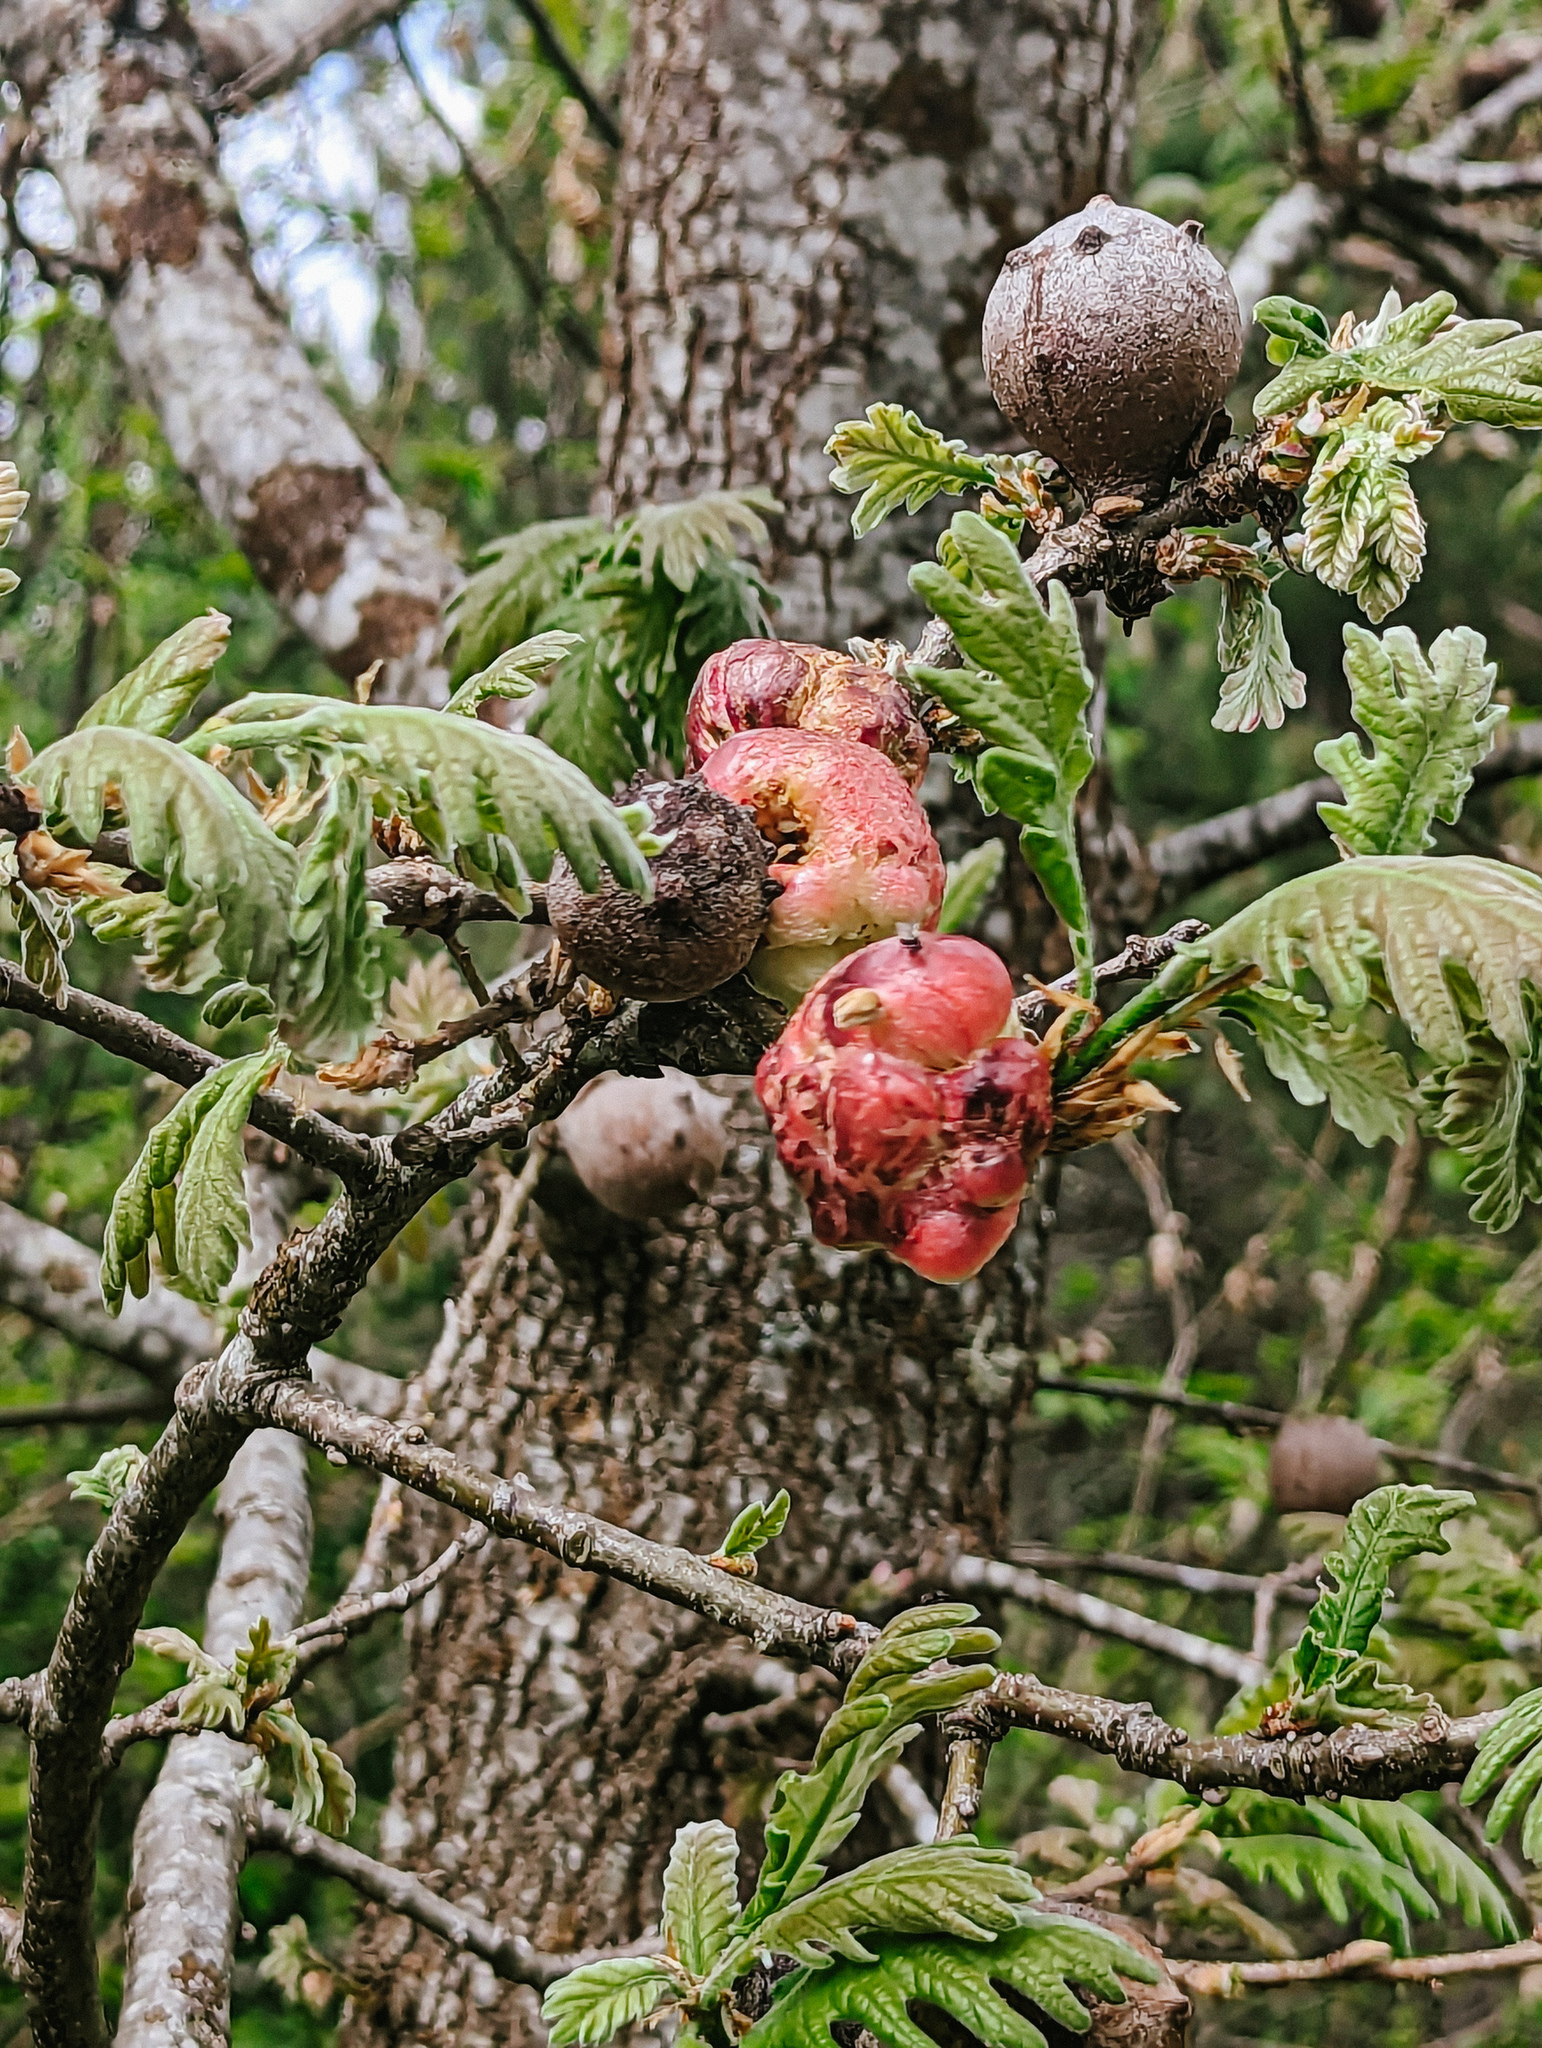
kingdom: Animalia
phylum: Arthropoda
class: Insecta
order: Hymenoptera
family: Cynipidae
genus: Biorhiza
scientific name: Biorhiza pallida
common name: Oak apple
